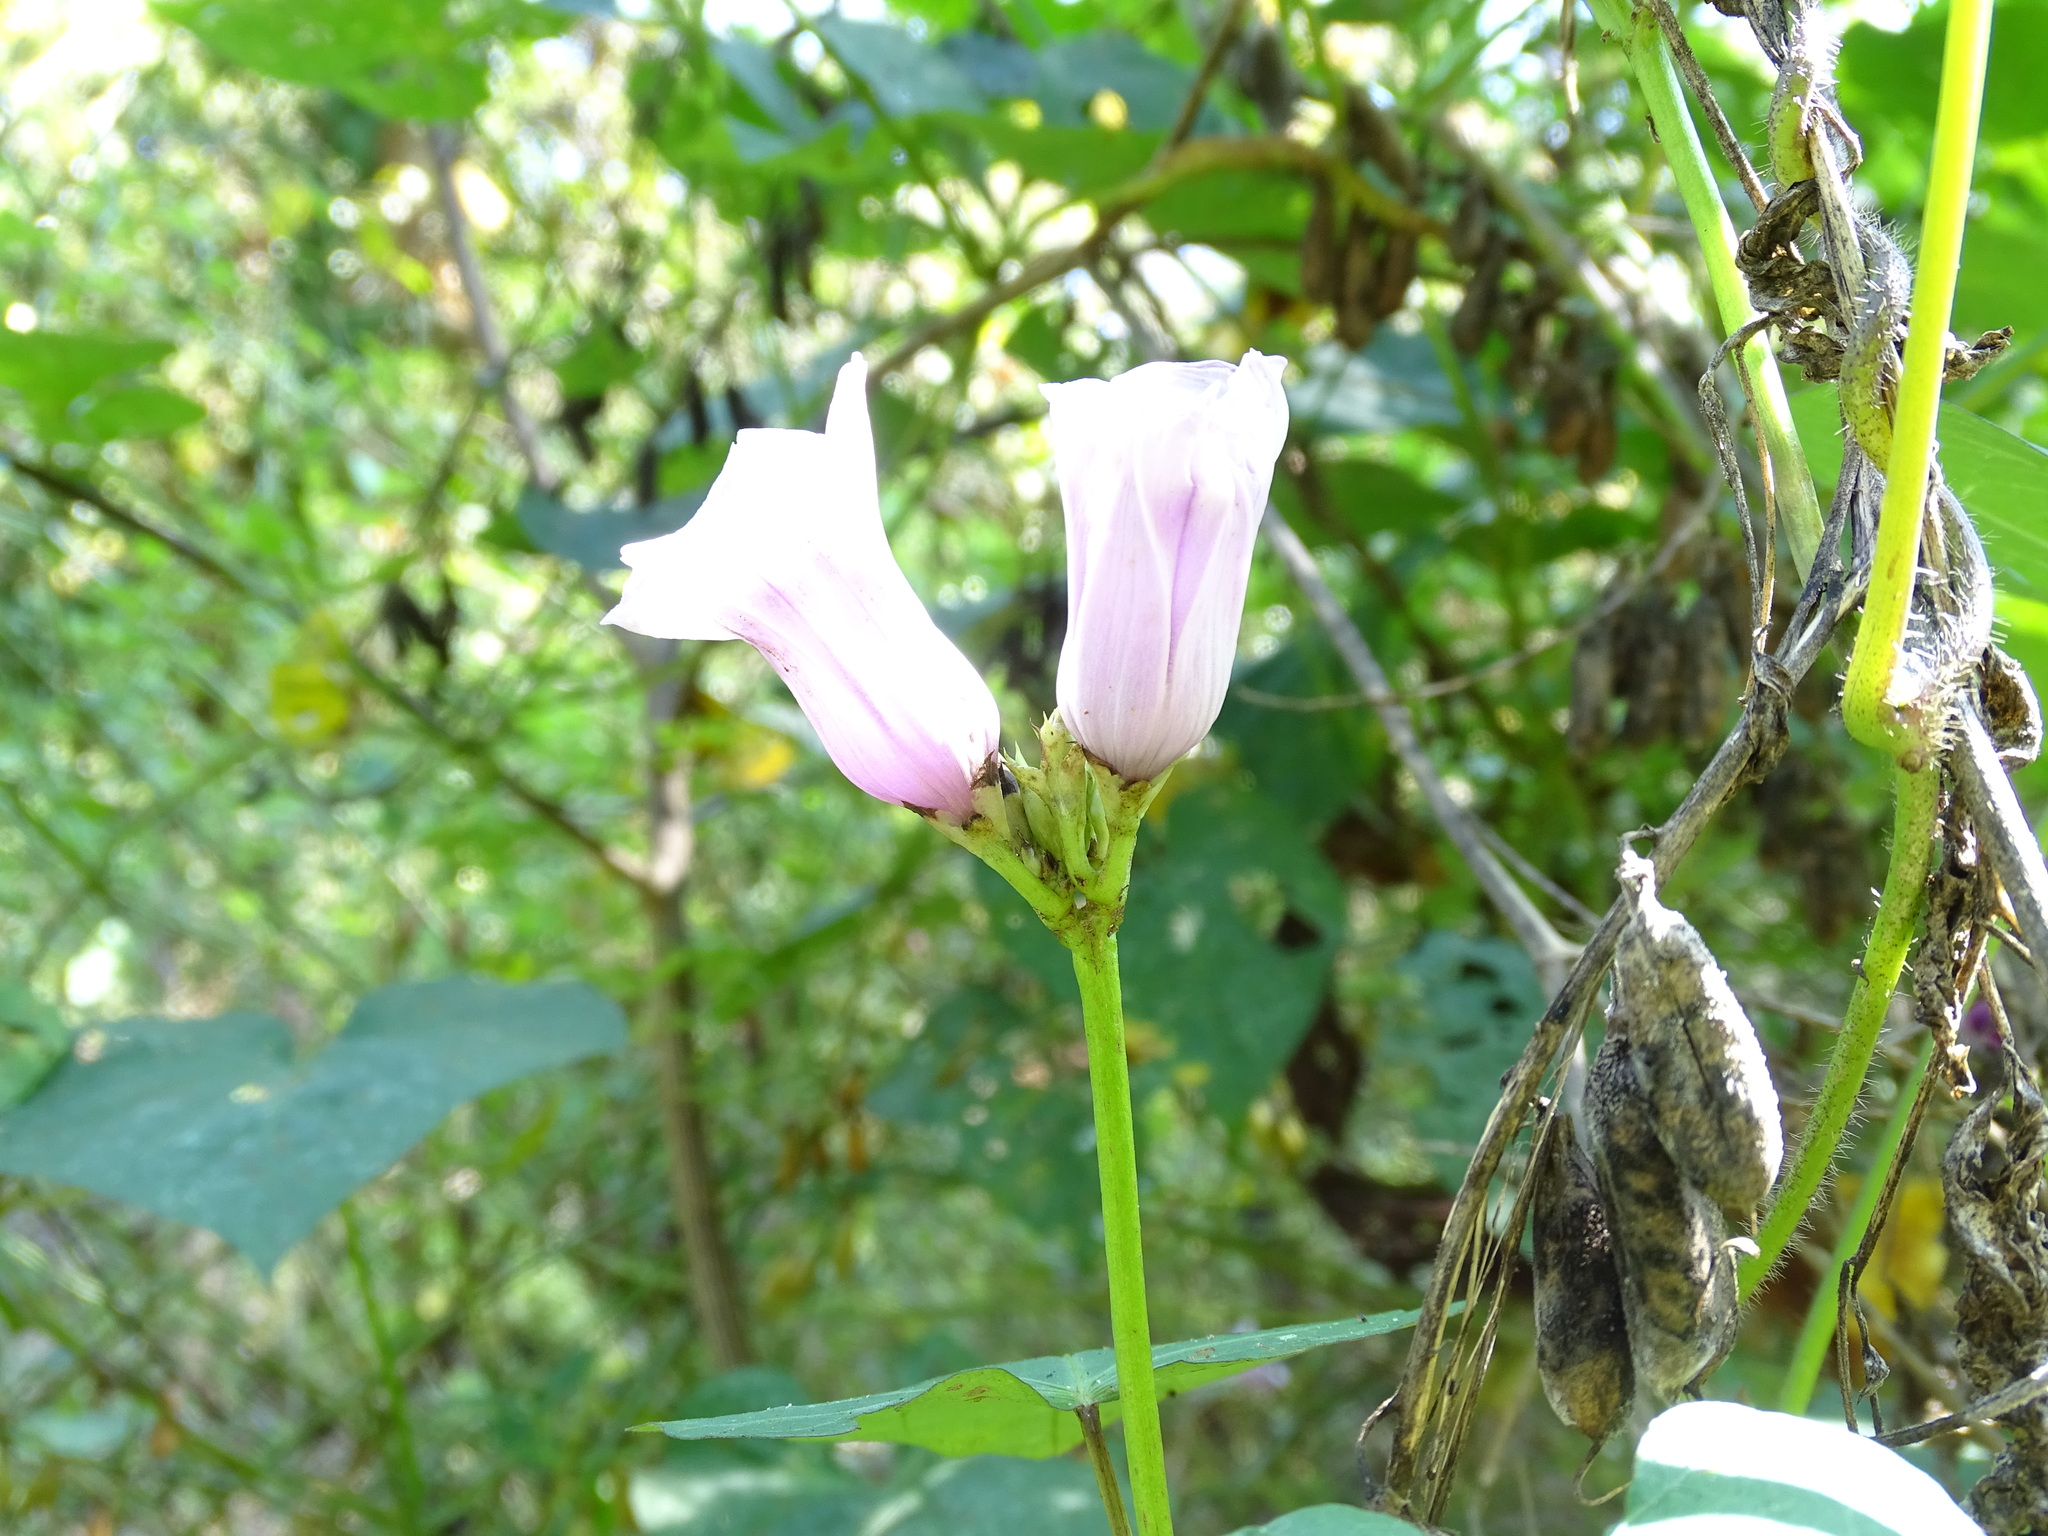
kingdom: Plantae
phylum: Tracheophyta
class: Magnoliopsida
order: Solanales
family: Convolvulaceae
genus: Ipomoea
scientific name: Ipomoea batatas
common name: Sweet-potato
